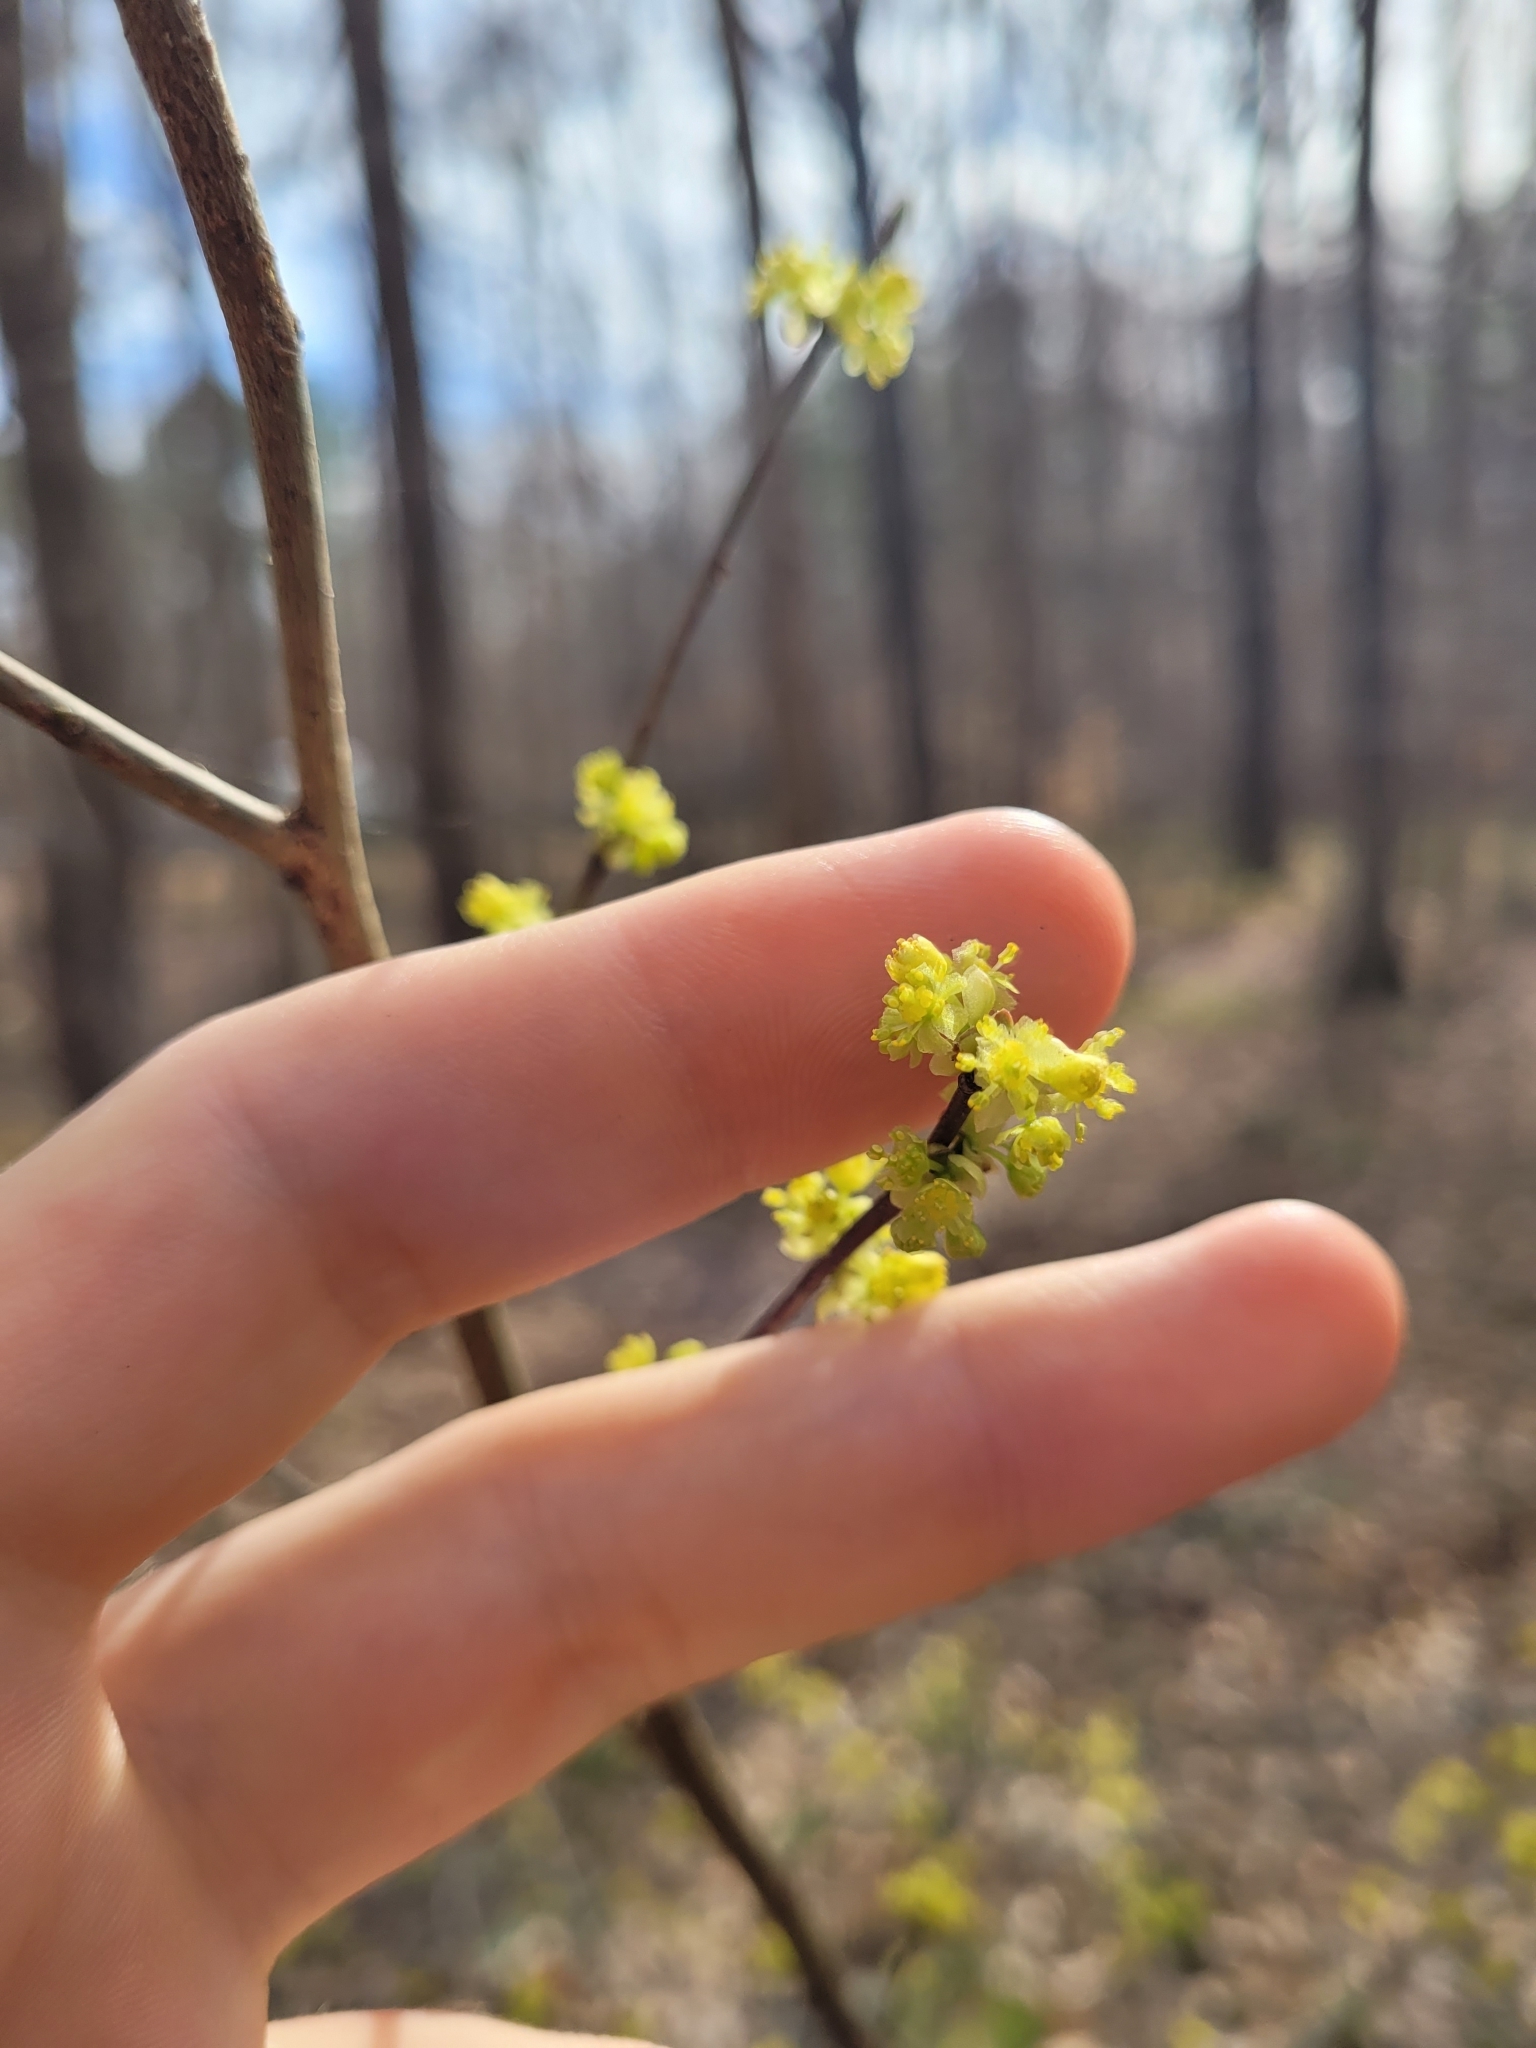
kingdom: Plantae
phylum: Tracheophyta
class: Magnoliopsida
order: Laurales
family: Lauraceae
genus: Lindera
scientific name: Lindera benzoin
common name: Spicebush
